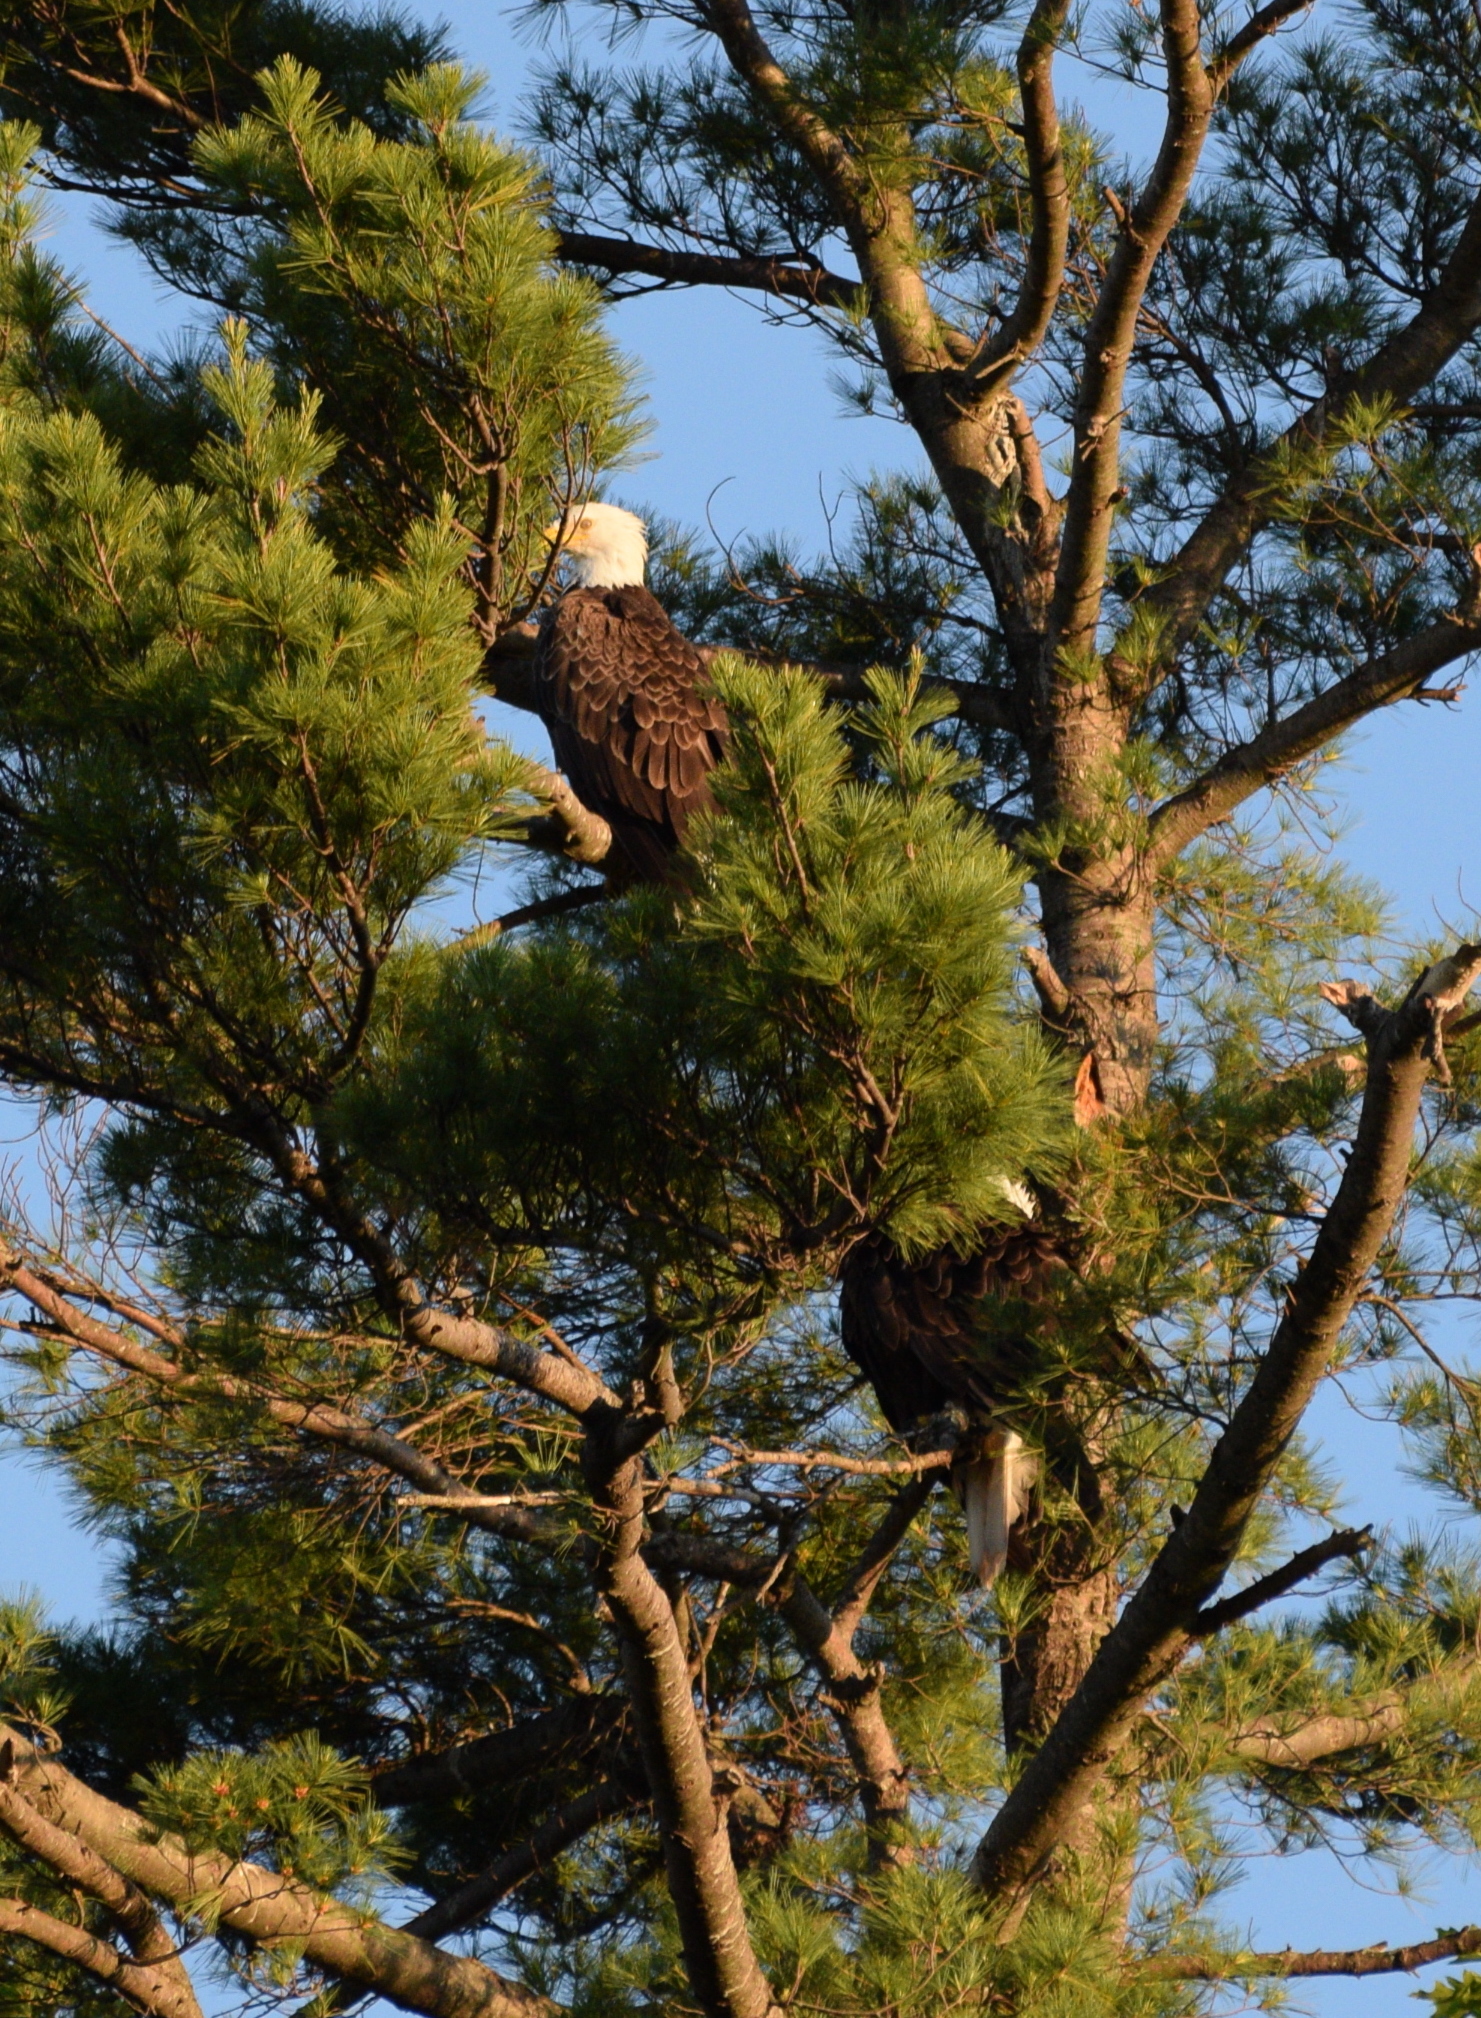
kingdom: Animalia
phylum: Chordata
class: Aves
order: Accipitriformes
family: Accipitridae
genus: Haliaeetus
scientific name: Haliaeetus leucocephalus
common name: Bald eagle
